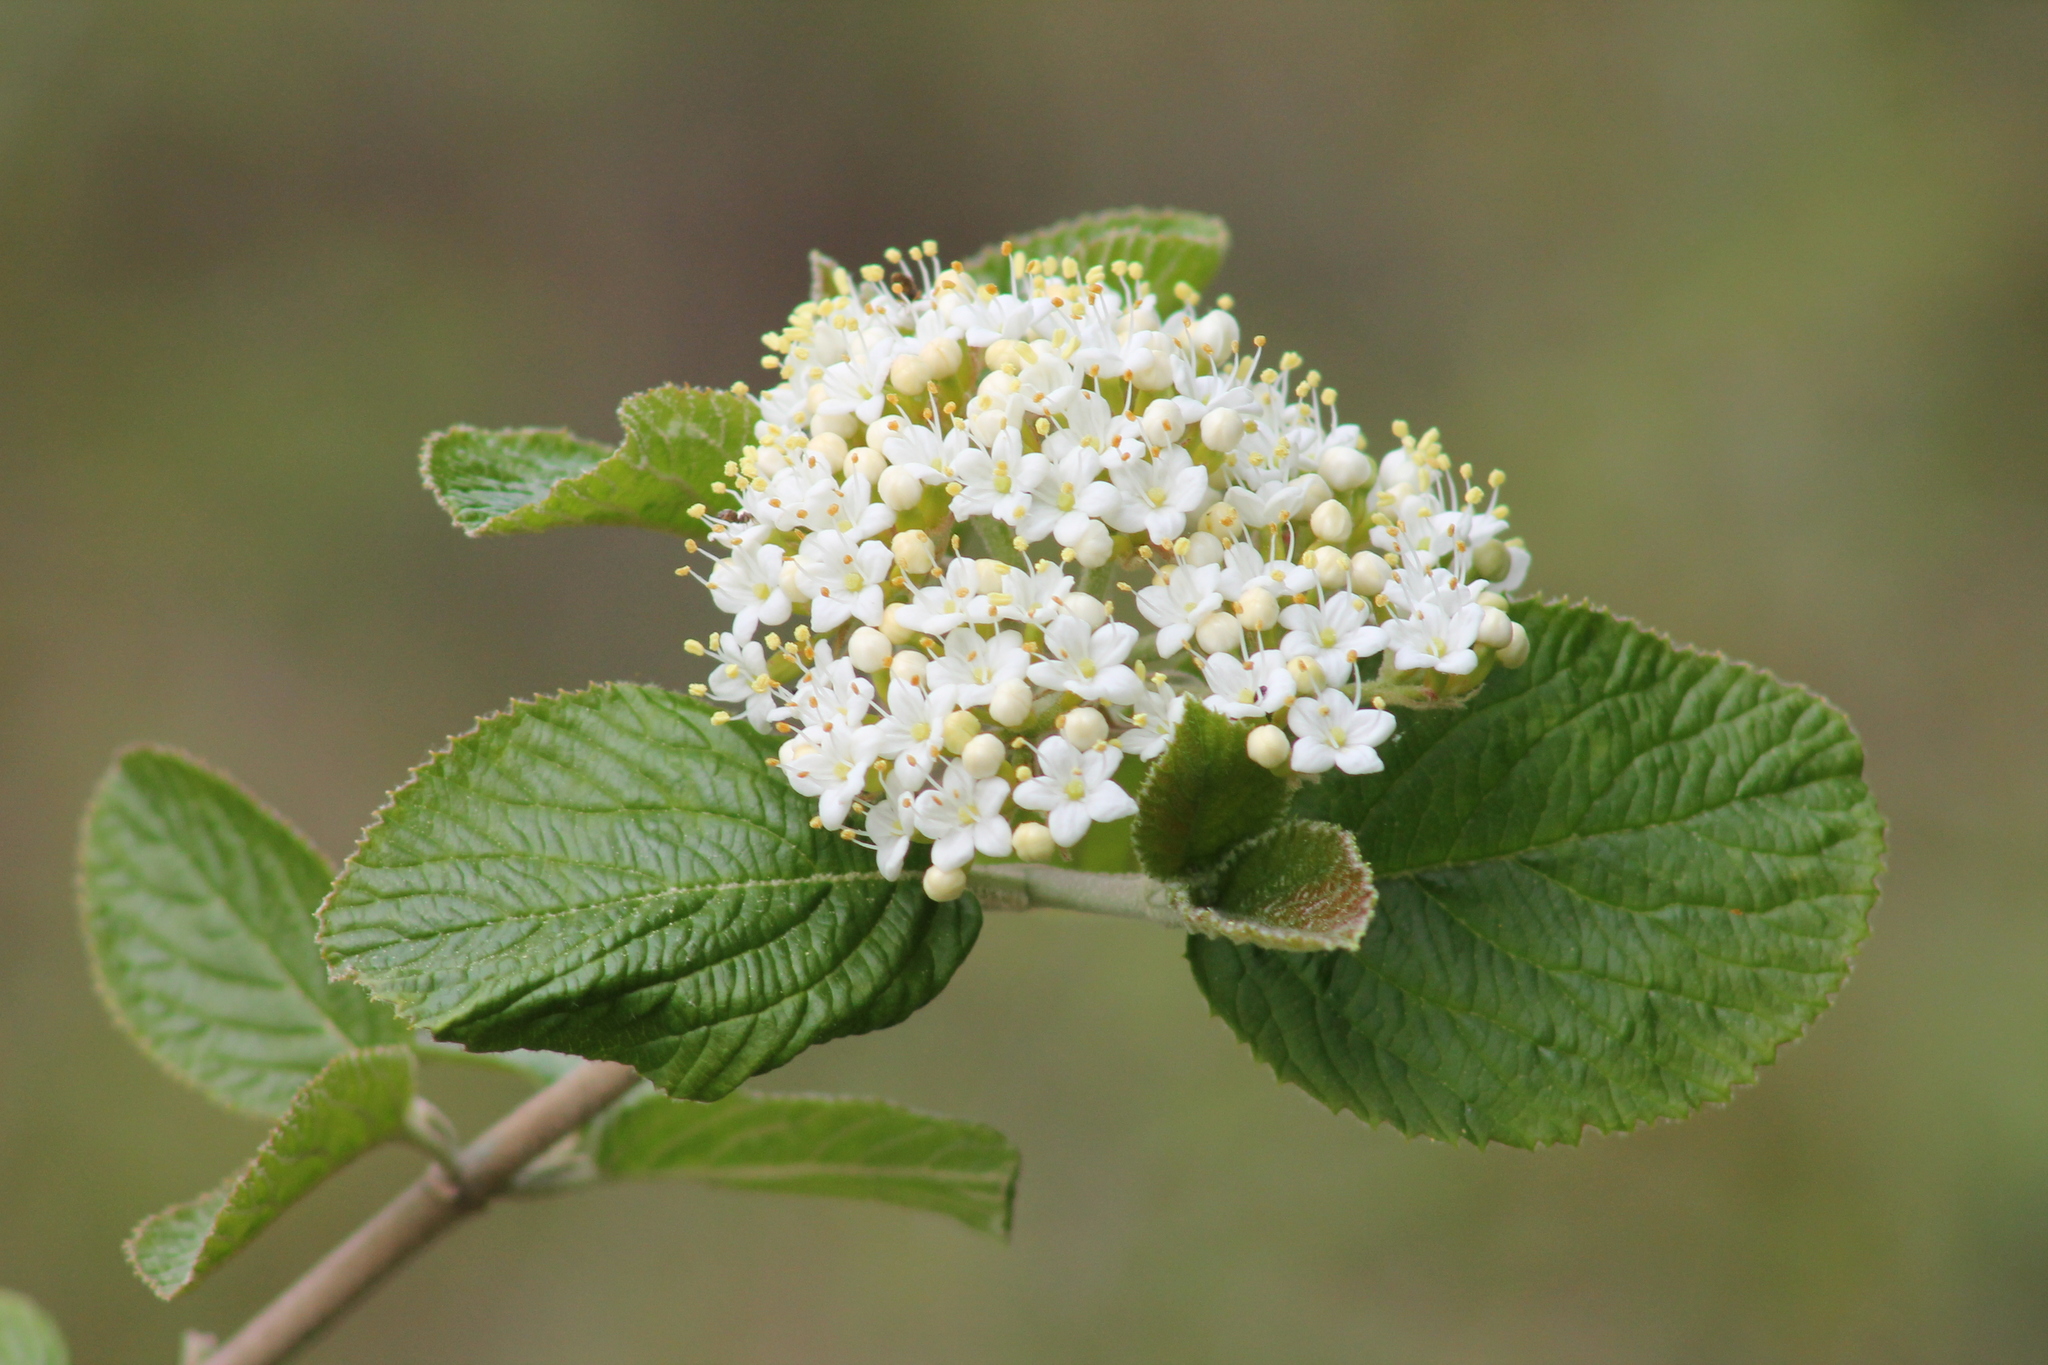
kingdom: Plantae
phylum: Tracheophyta
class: Magnoliopsida
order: Dipsacales
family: Viburnaceae
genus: Viburnum
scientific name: Viburnum lantana
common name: Wayfaring tree
